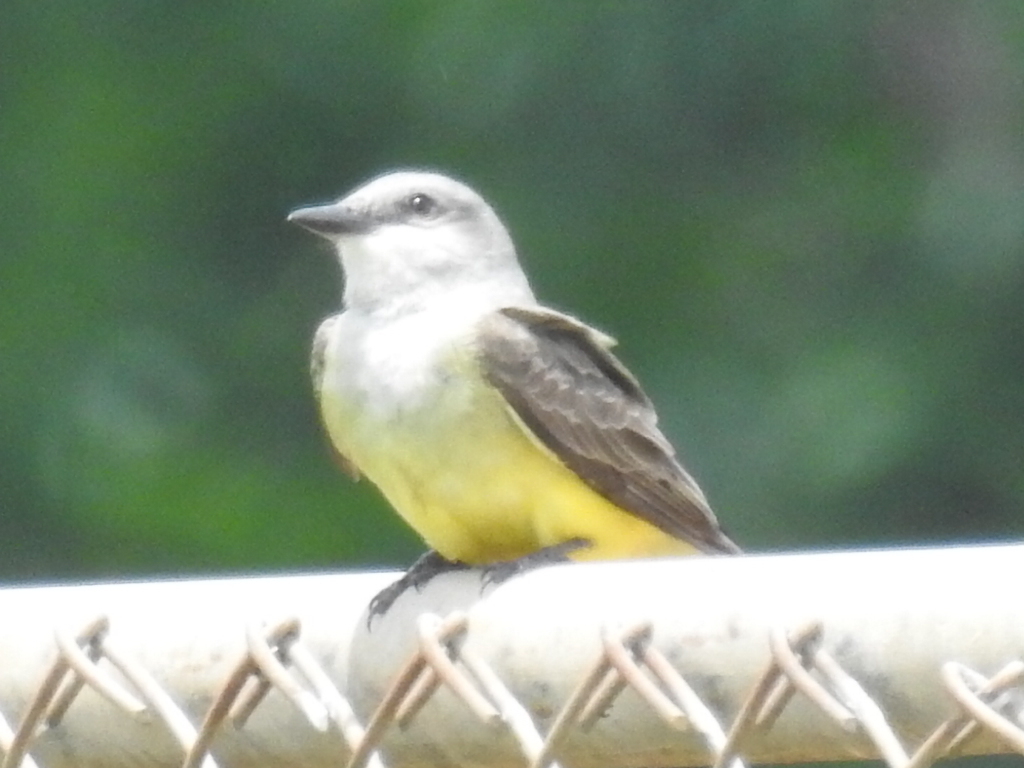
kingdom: Animalia
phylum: Chordata
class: Aves
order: Passeriformes
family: Tyrannidae
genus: Tyrannus
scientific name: Tyrannus verticalis
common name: Western kingbird
